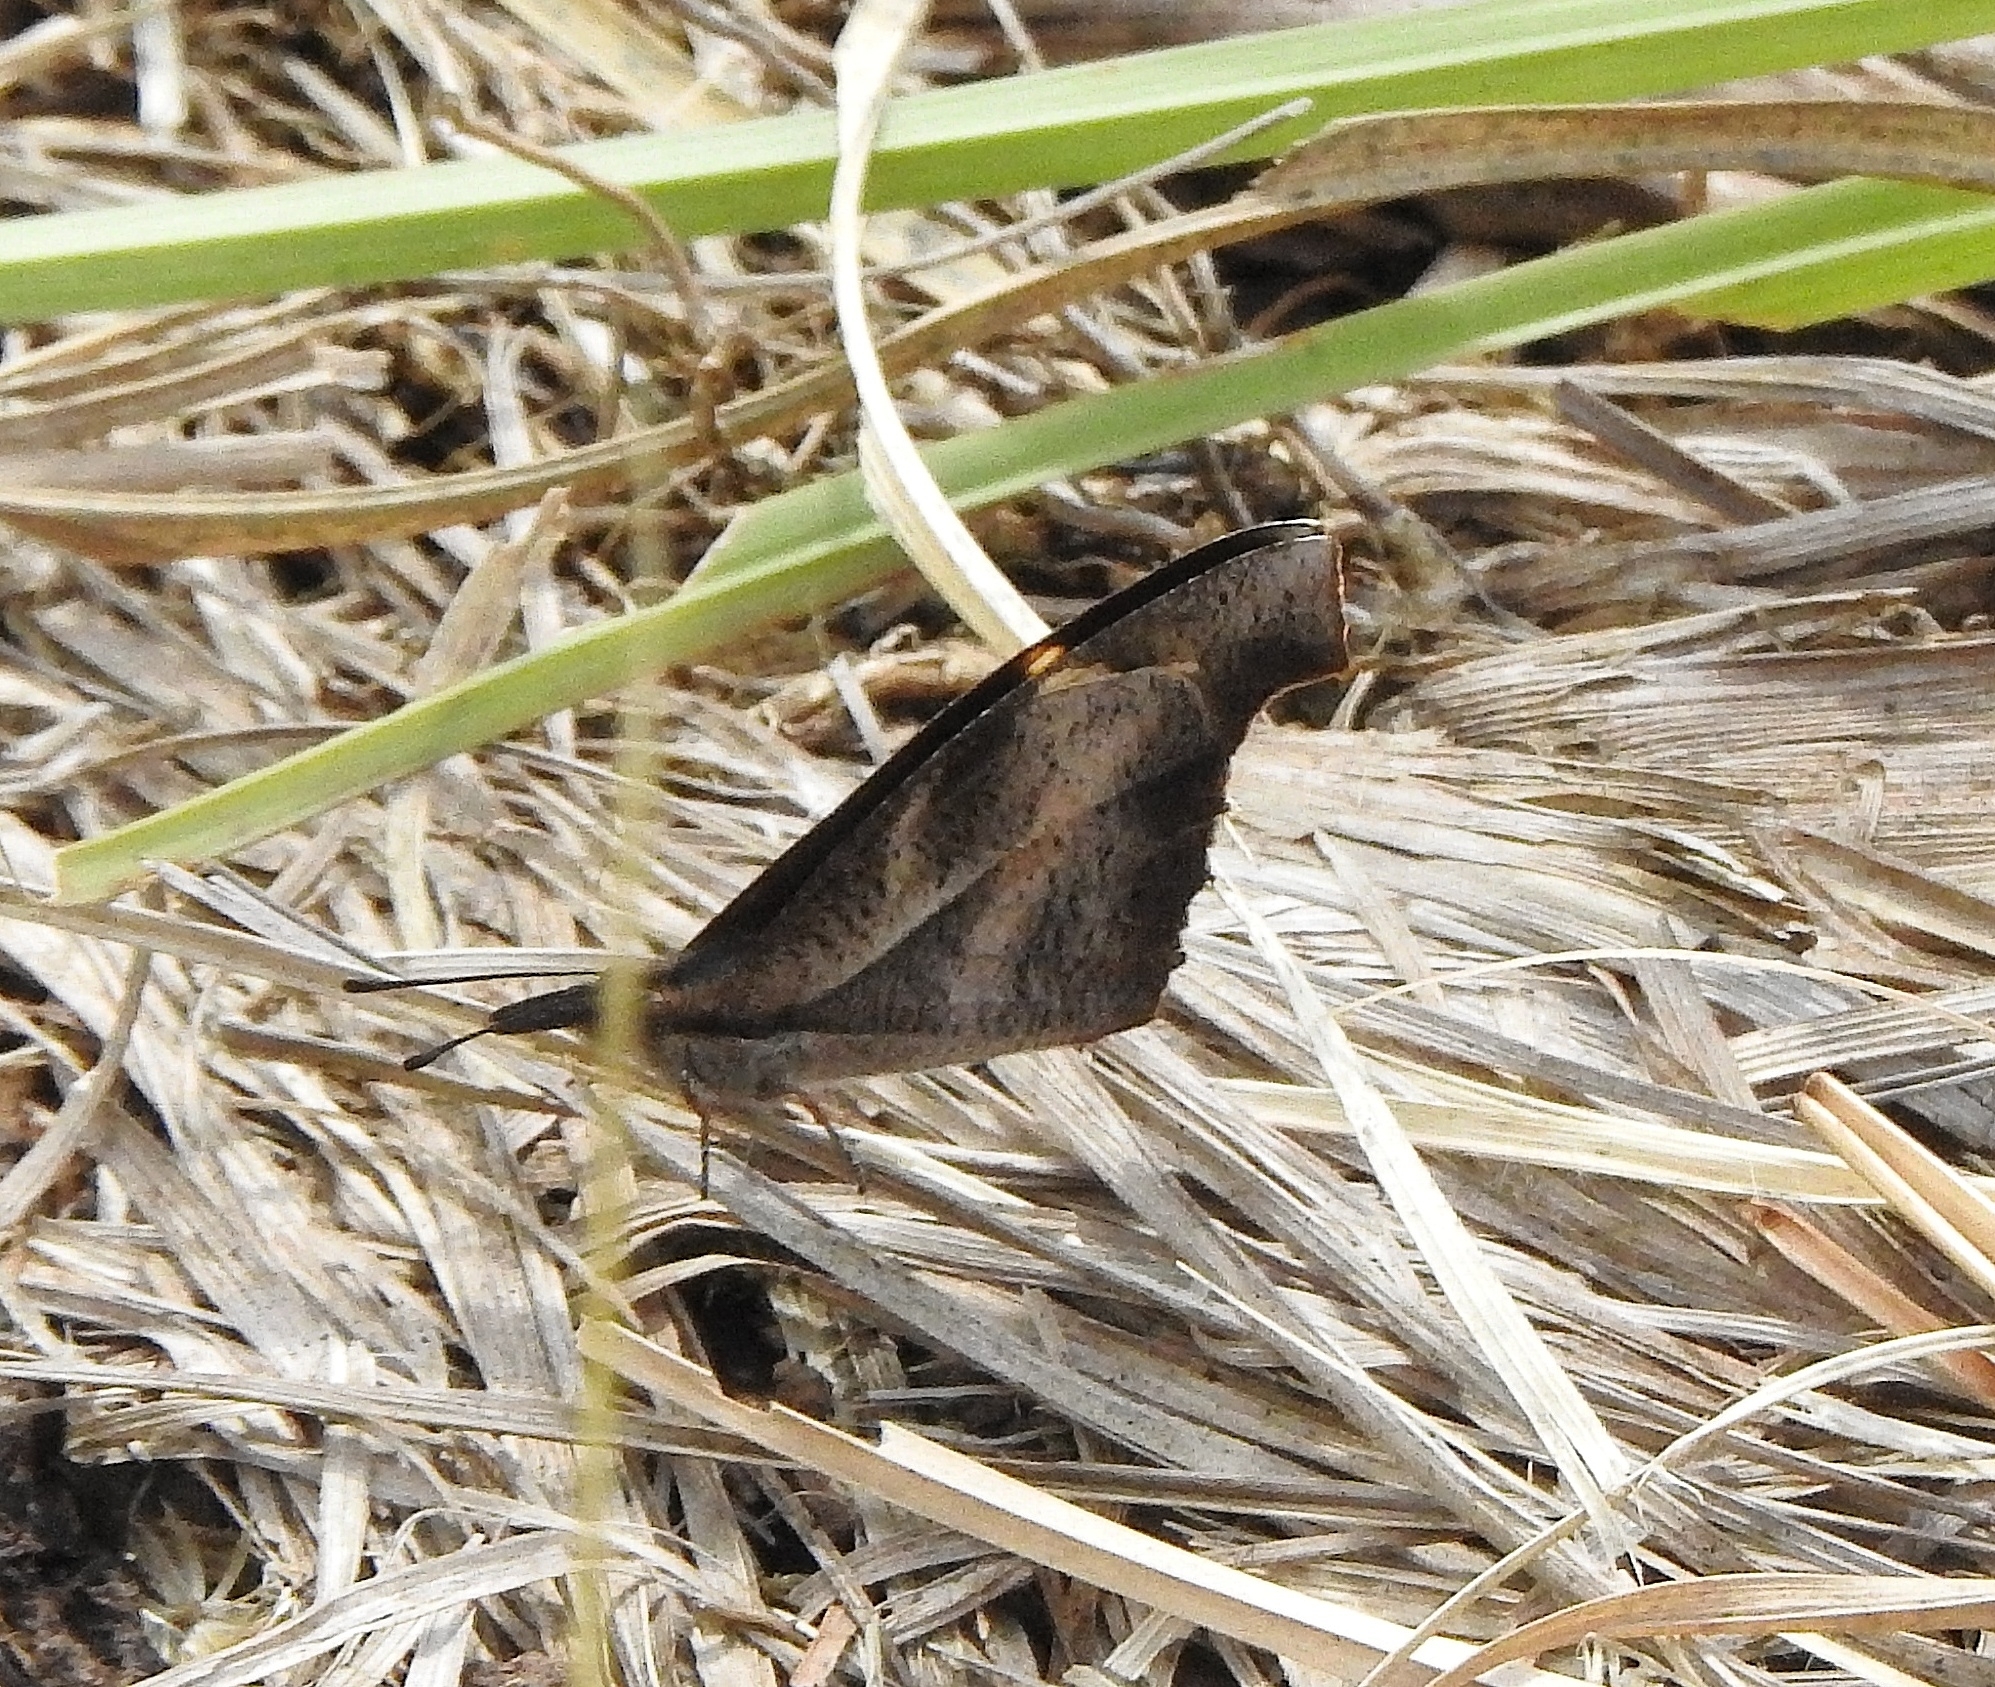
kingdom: Animalia
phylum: Arthropoda
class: Insecta
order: Lepidoptera
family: Nymphalidae
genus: Libythea
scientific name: Libythea myrrha
